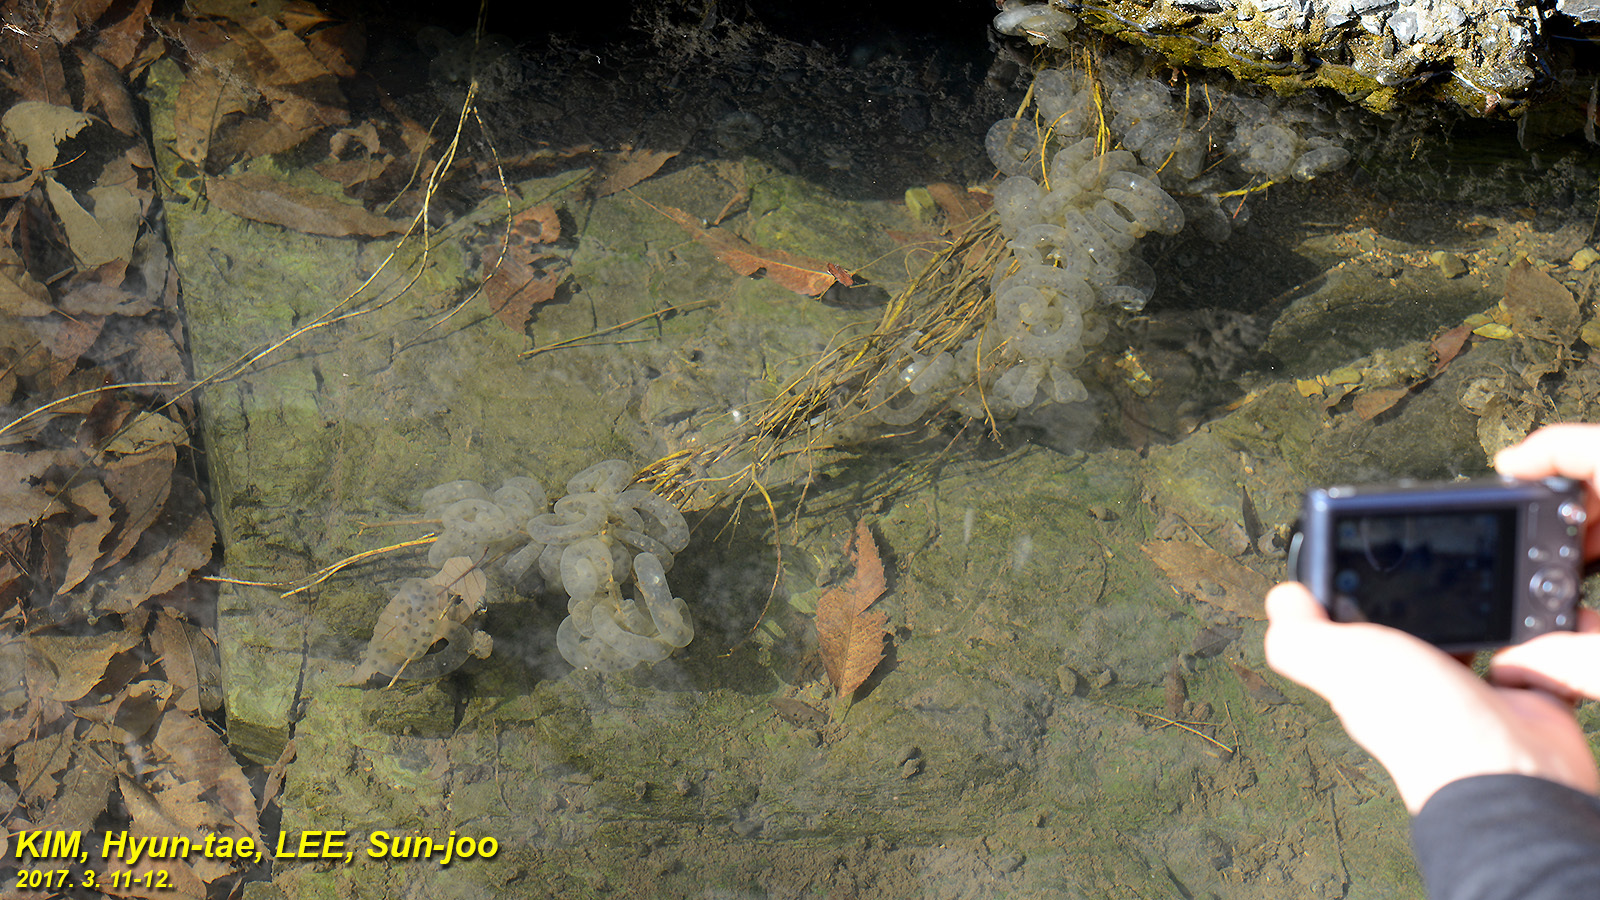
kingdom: Animalia
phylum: Chordata
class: Amphibia
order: Caudata
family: Hynobiidae
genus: Hynobius
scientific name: Hynobius leechii
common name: Gensan salamander
